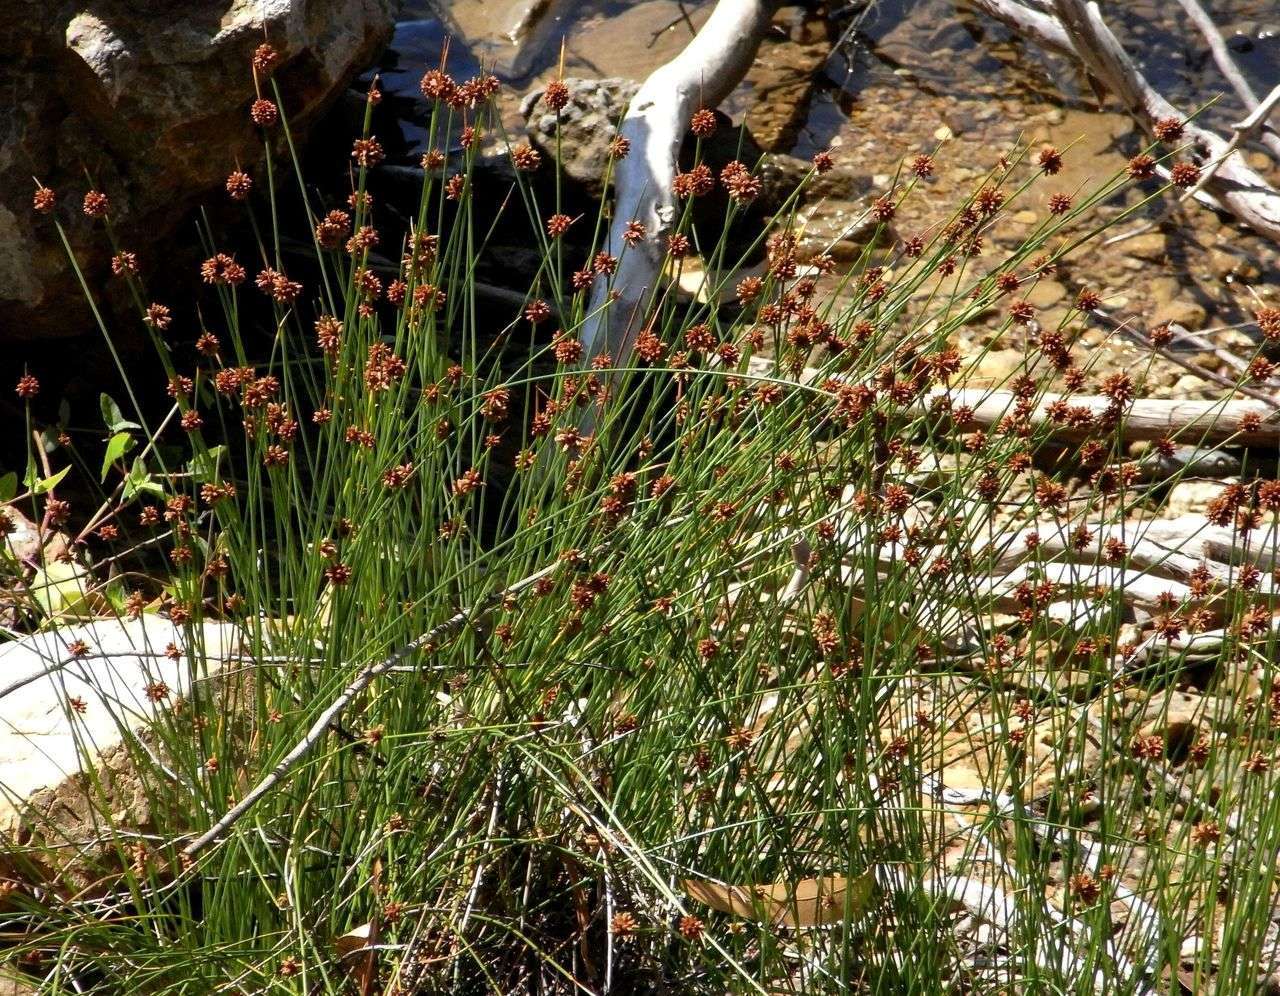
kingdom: Plantae
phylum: Tracheophyta
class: Liliopsida
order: Poales
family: Cyperaceae
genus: Ficinia
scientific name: Ficinia nodosa
